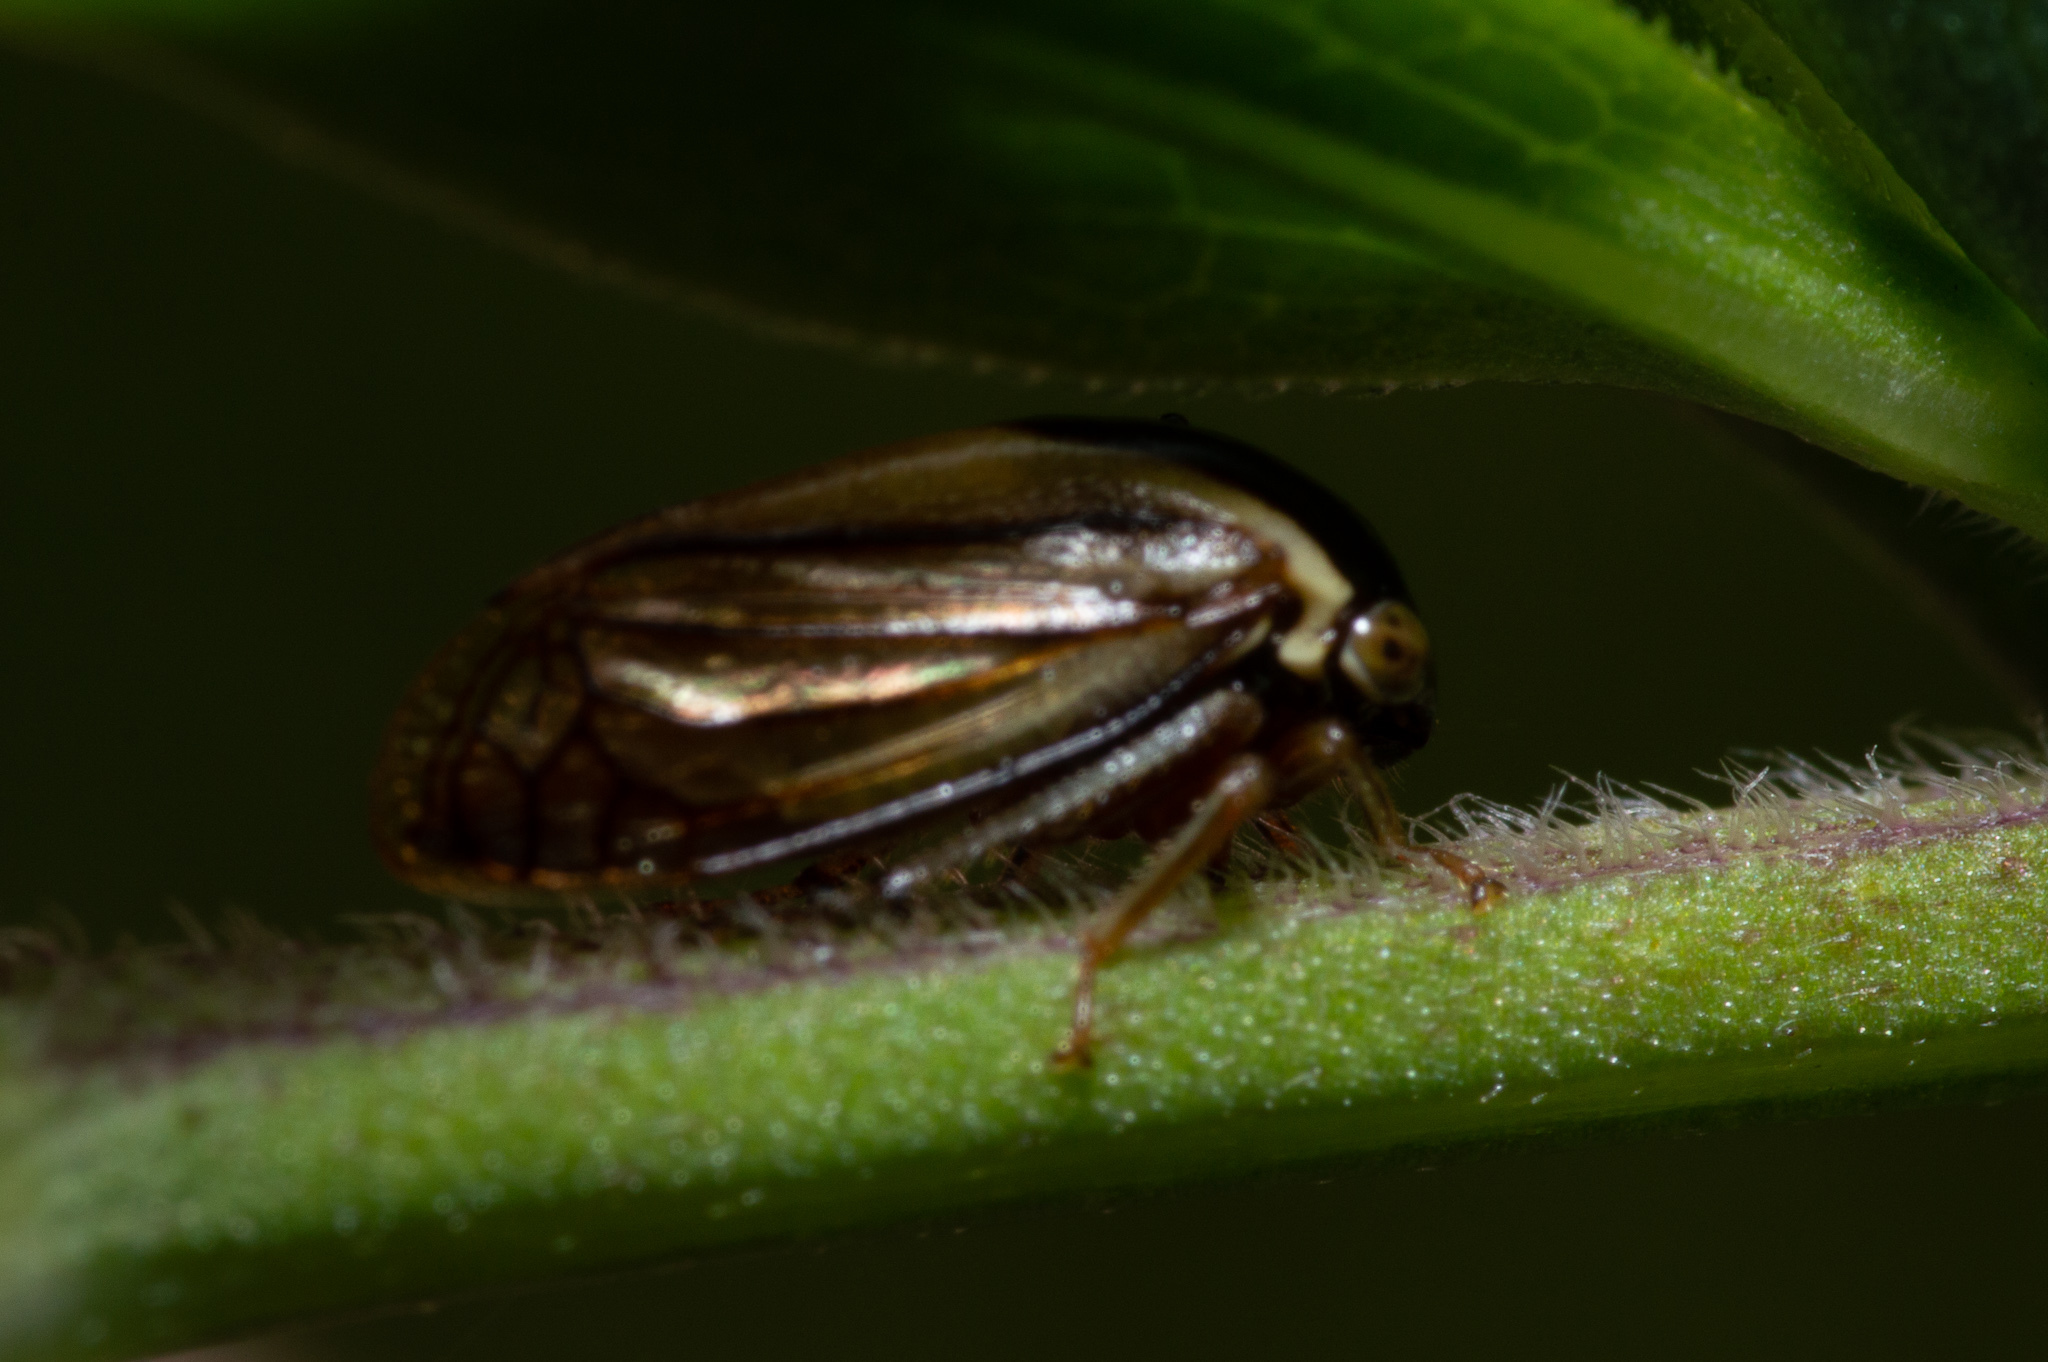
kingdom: Animalia
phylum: Arthropoda
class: Insecta
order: Hemiptera
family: Membracidae
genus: Acutalis
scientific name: Acutalis tartarea
